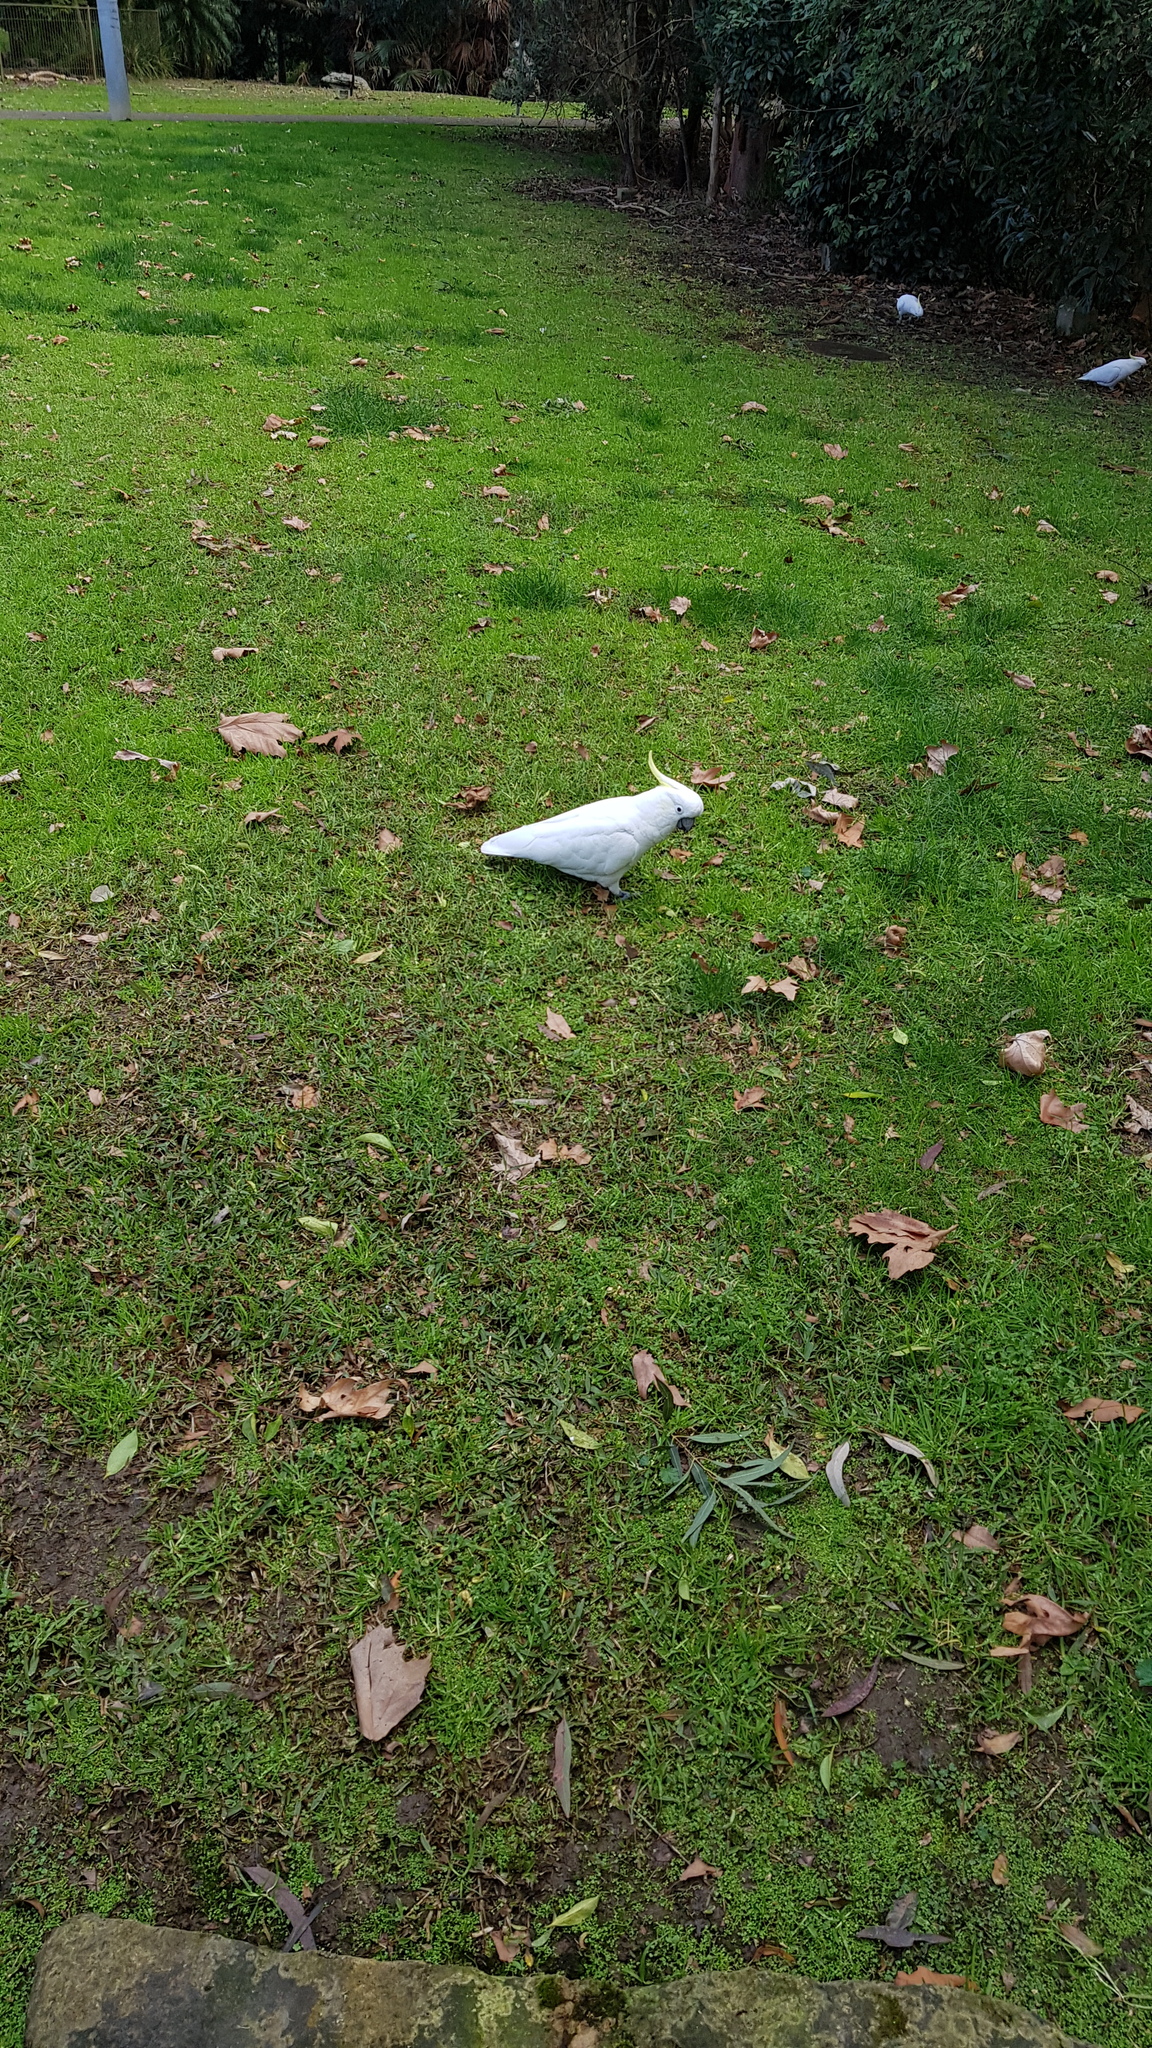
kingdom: Animalia
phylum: Chordata
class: Aves
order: Psittaciformes
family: Psittacidae
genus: Cacatua
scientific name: Cacatua galerita
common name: Sulphur-crested cockatoo
